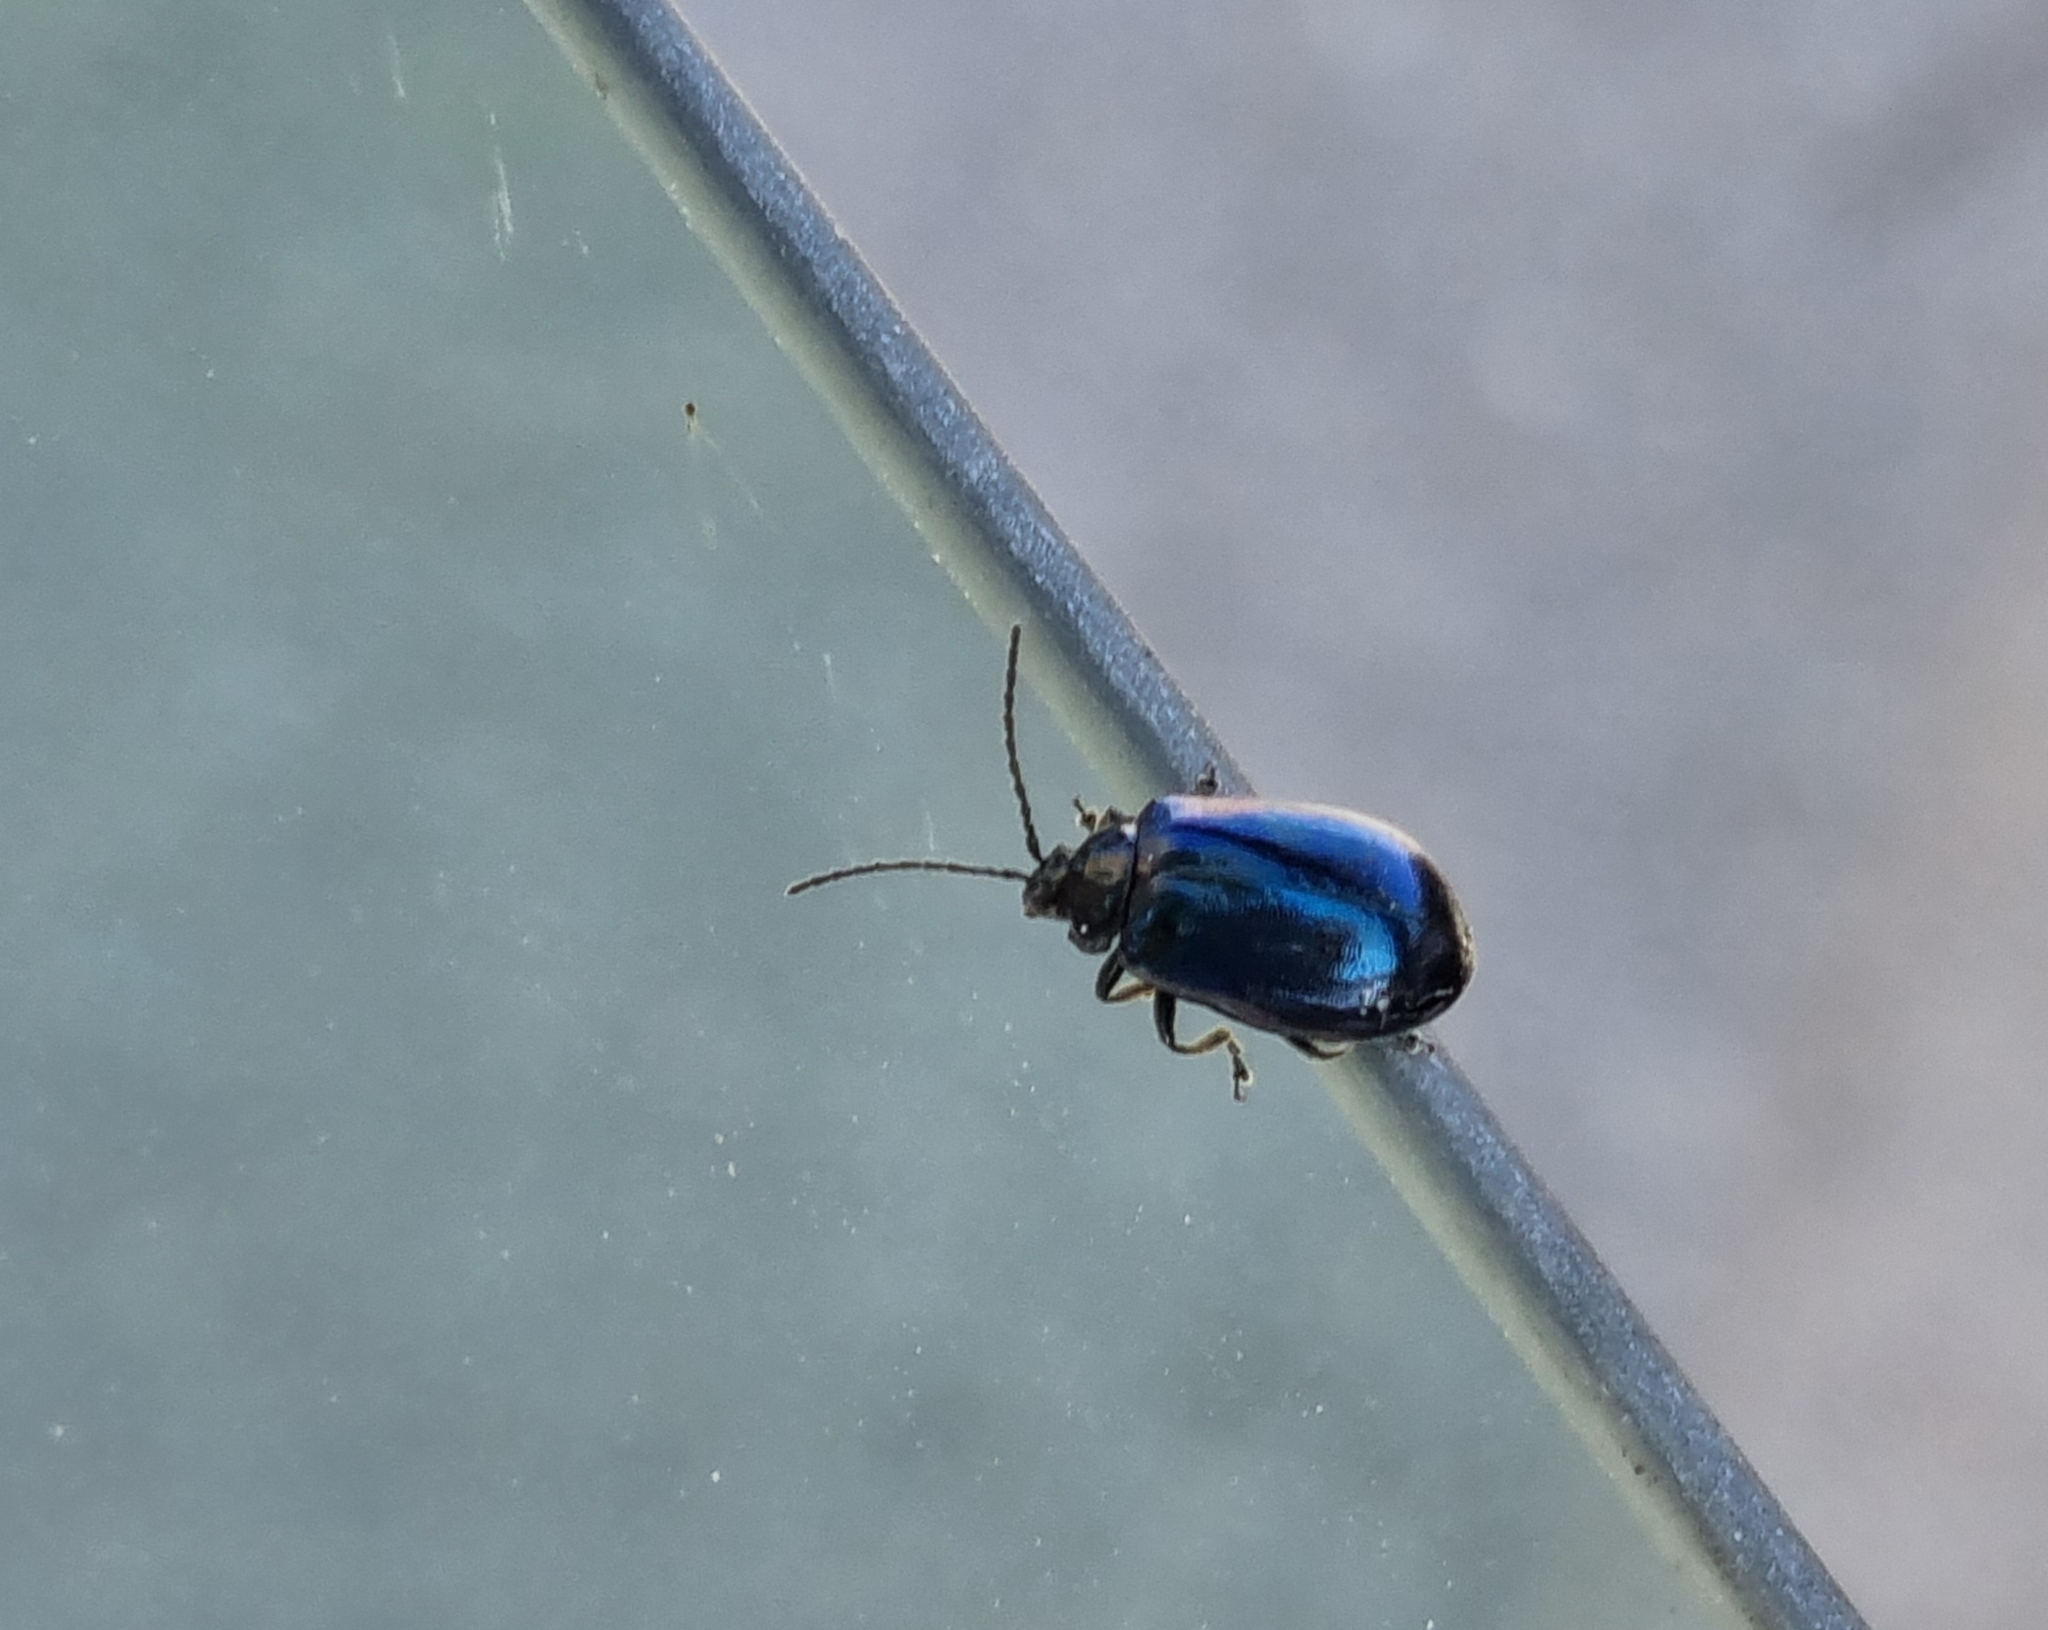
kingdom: Animalia
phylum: Arthropoda
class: Insecta
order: Coleoptera
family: Chrysomelidae
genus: Agelastica
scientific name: Agelastica alni
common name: Alder leaf beetle
